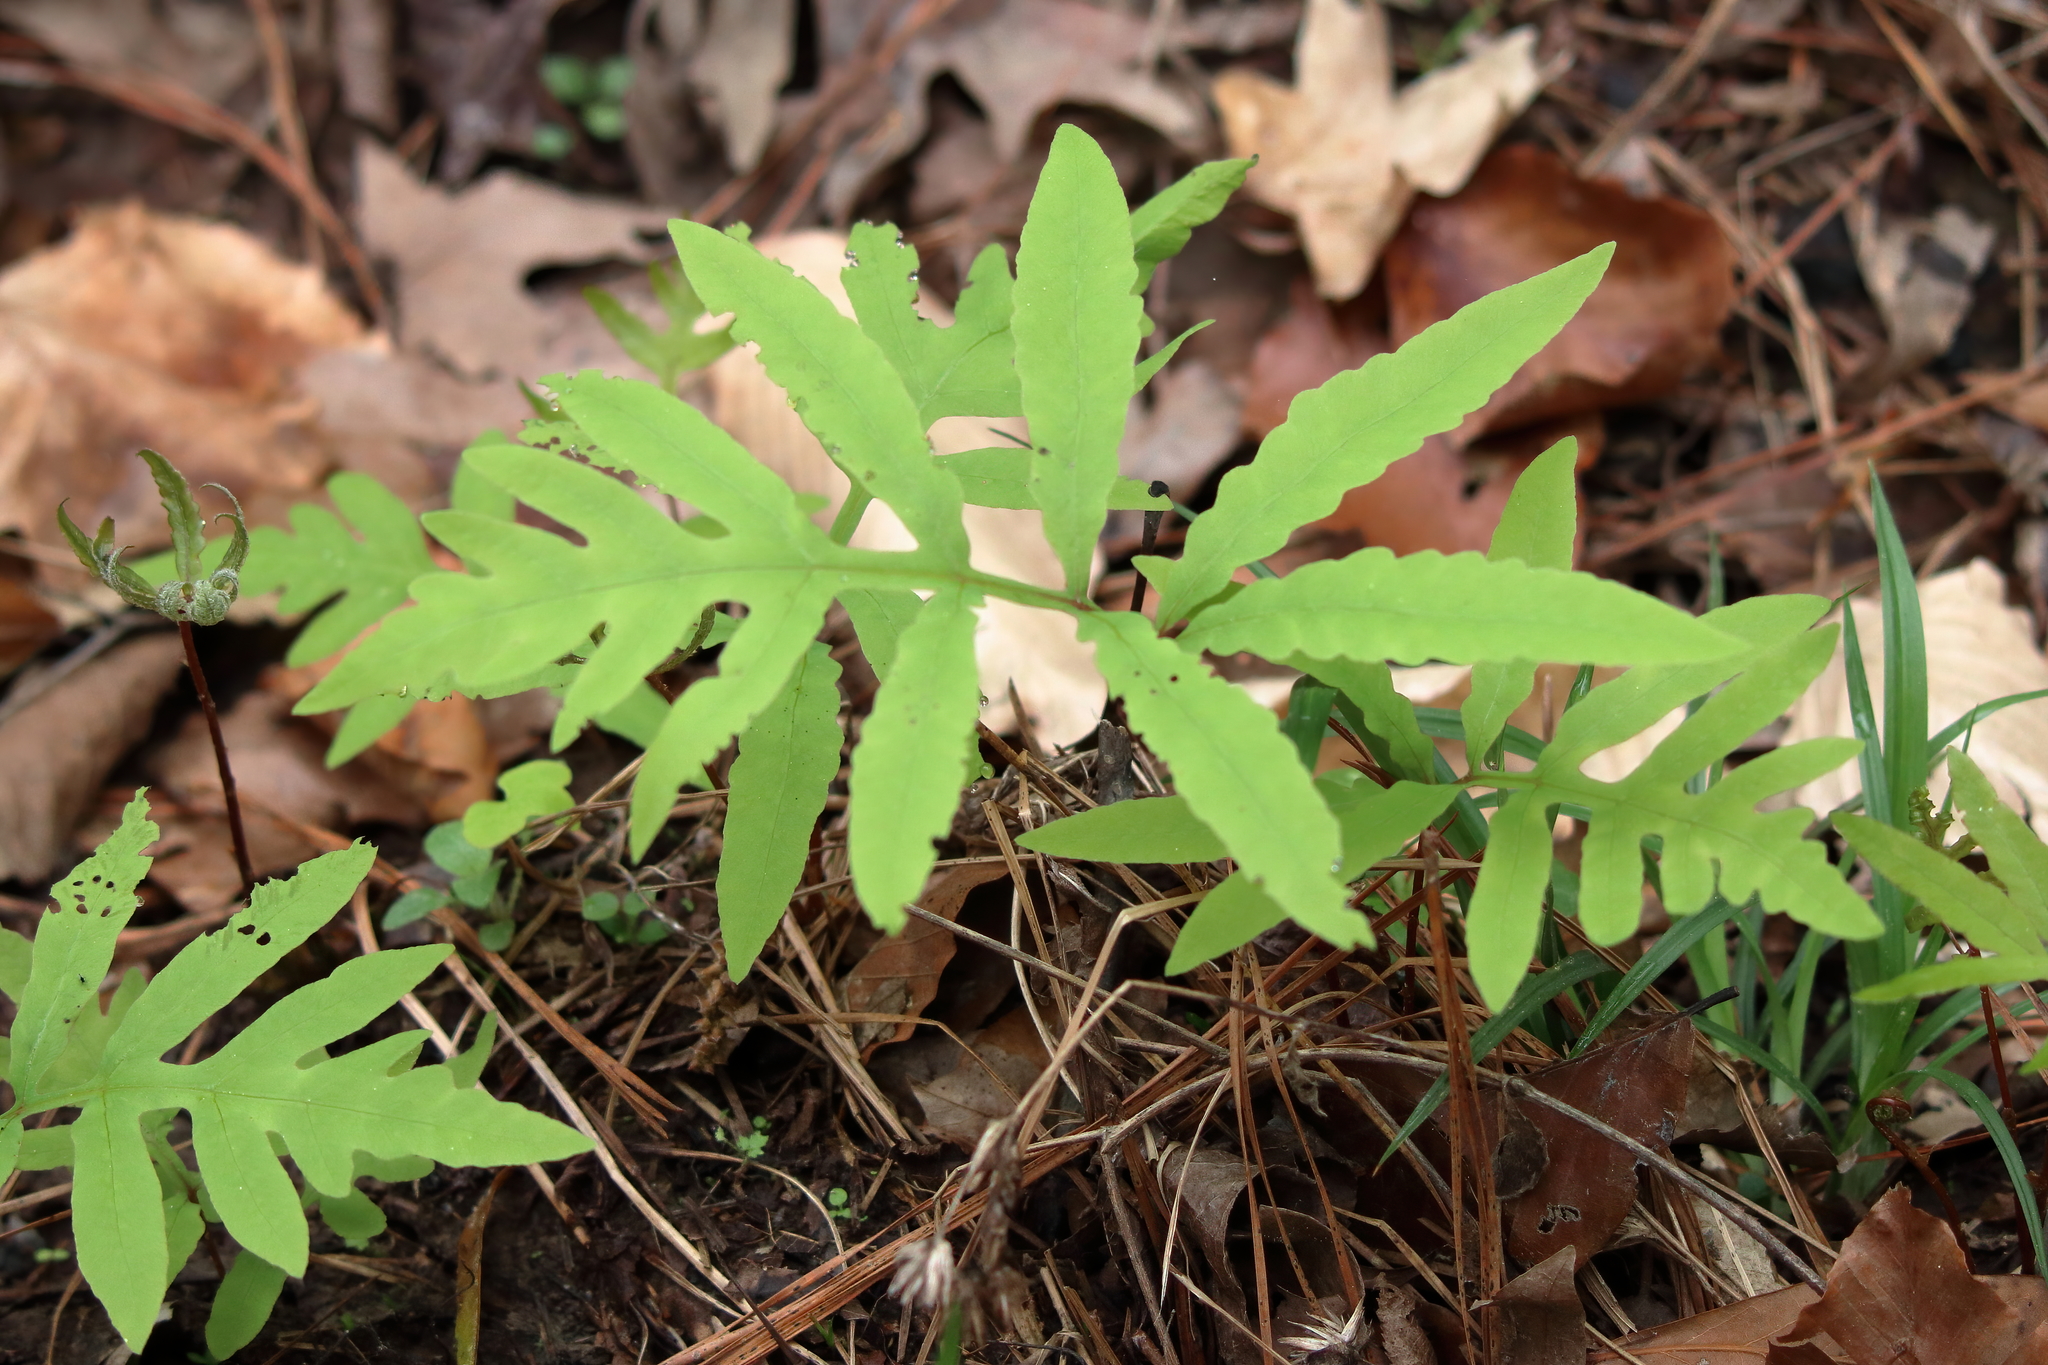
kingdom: Plantae
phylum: Tracheophyta
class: Polypodiopsida
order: Polypodiales
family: Onocleaceae
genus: Onoclea
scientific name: Onoclea sensibilis
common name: Sensitive fern
